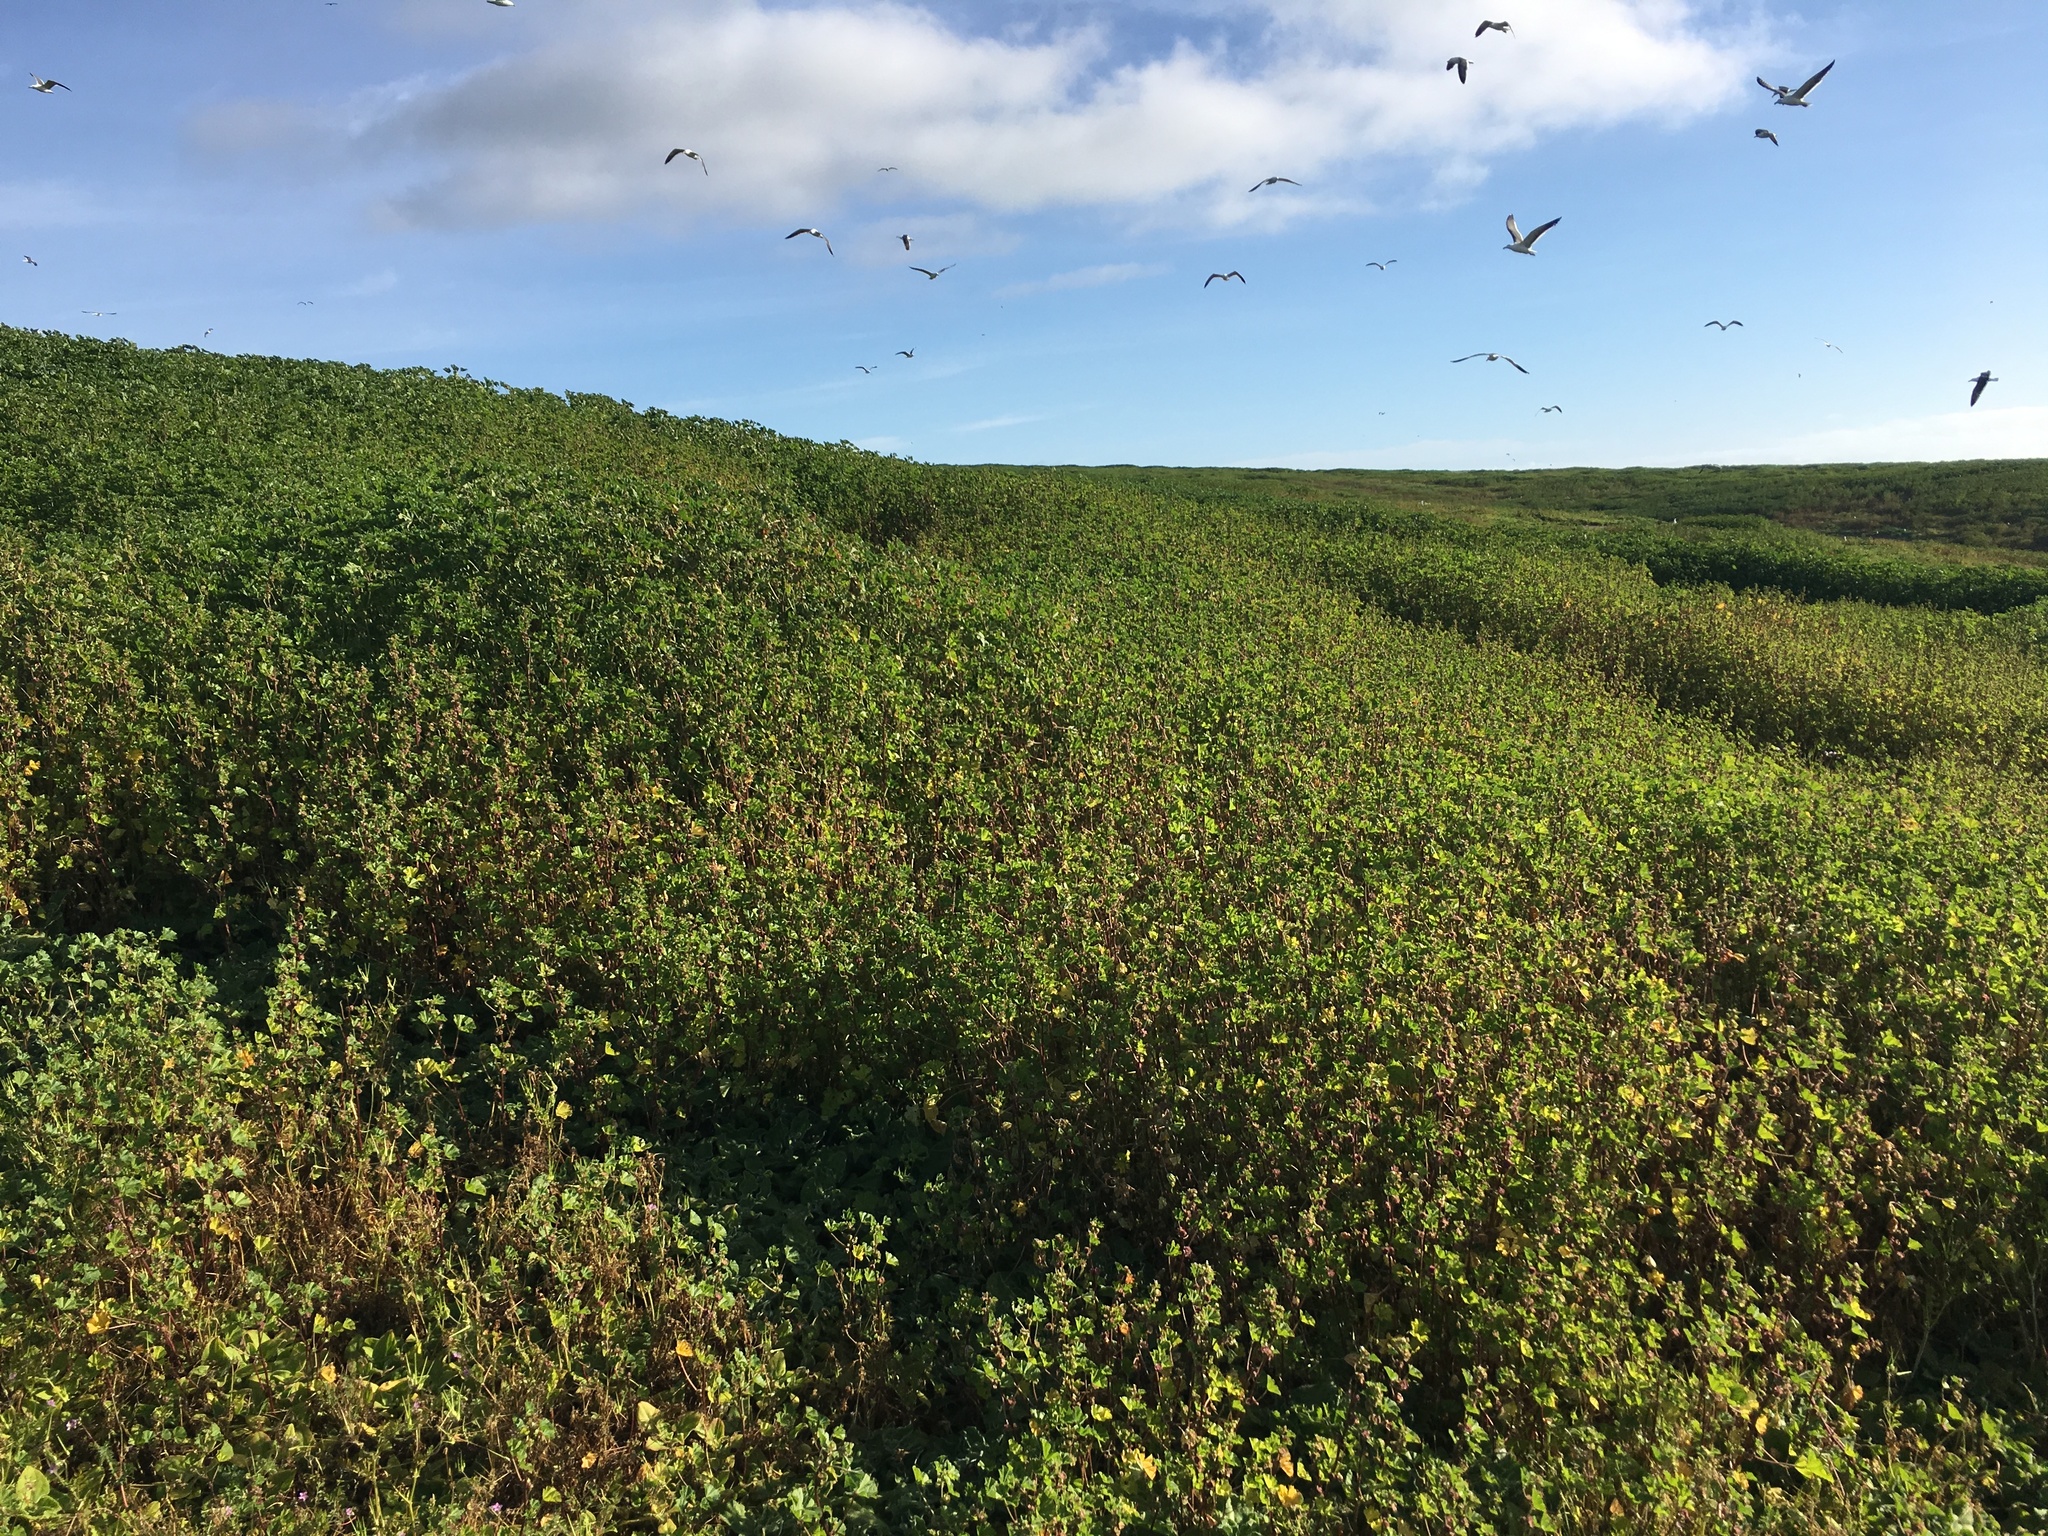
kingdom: Plantae
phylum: Tracheophyta
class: Magnoliopsida
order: Malvales
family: Malvaceae
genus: Malva
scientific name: Malva parviflora
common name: Least mallow
